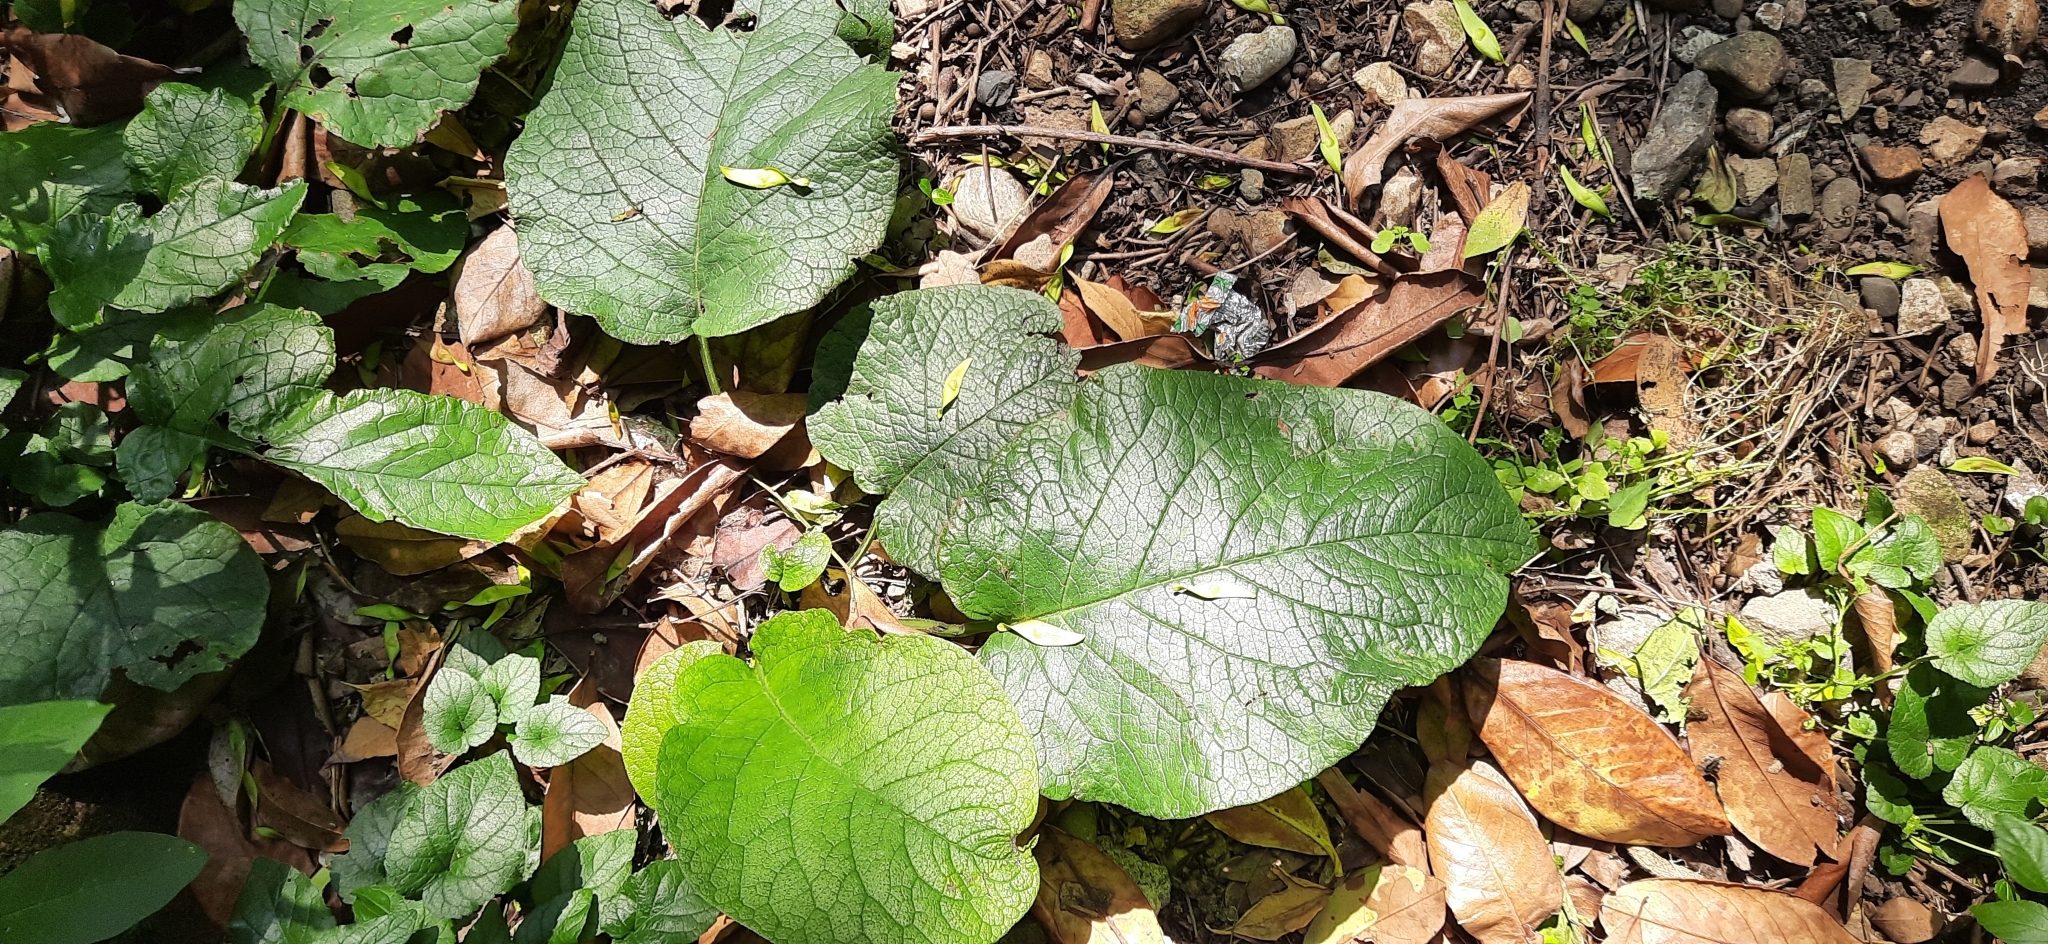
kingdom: Plantae
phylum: Tracheophyta
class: Magnoliopsida
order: Boraginales
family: Boraginaceae
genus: Trachystemon
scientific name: Trachystemon orientale
